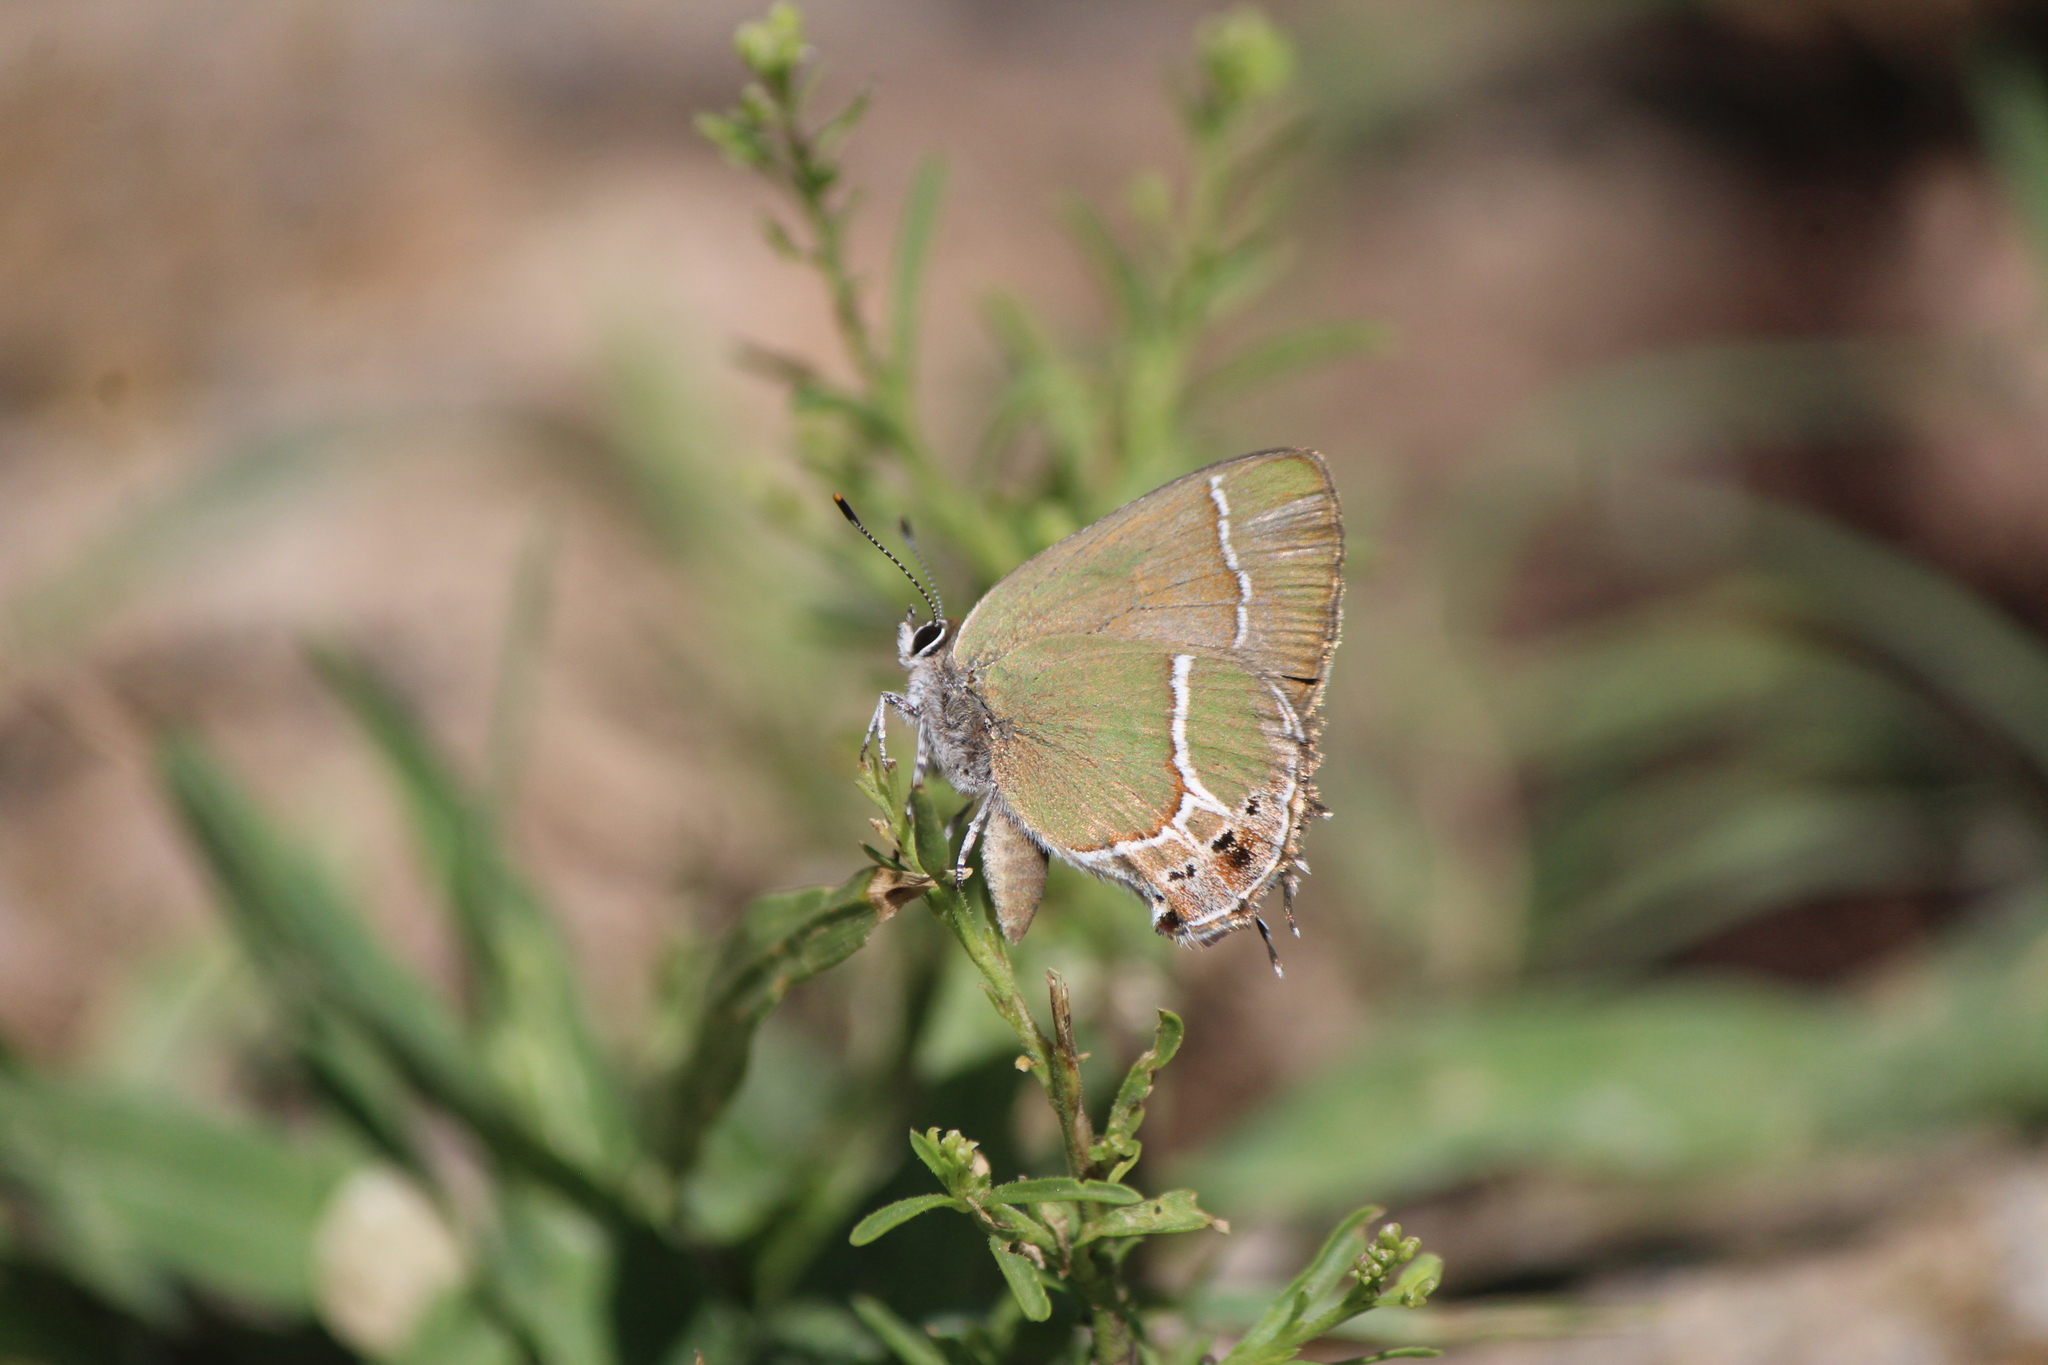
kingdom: Animalia
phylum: Arthropoda
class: Insecta
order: Lepidoptera
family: Lycaenidae
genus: Xamia
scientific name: Xamia xami
